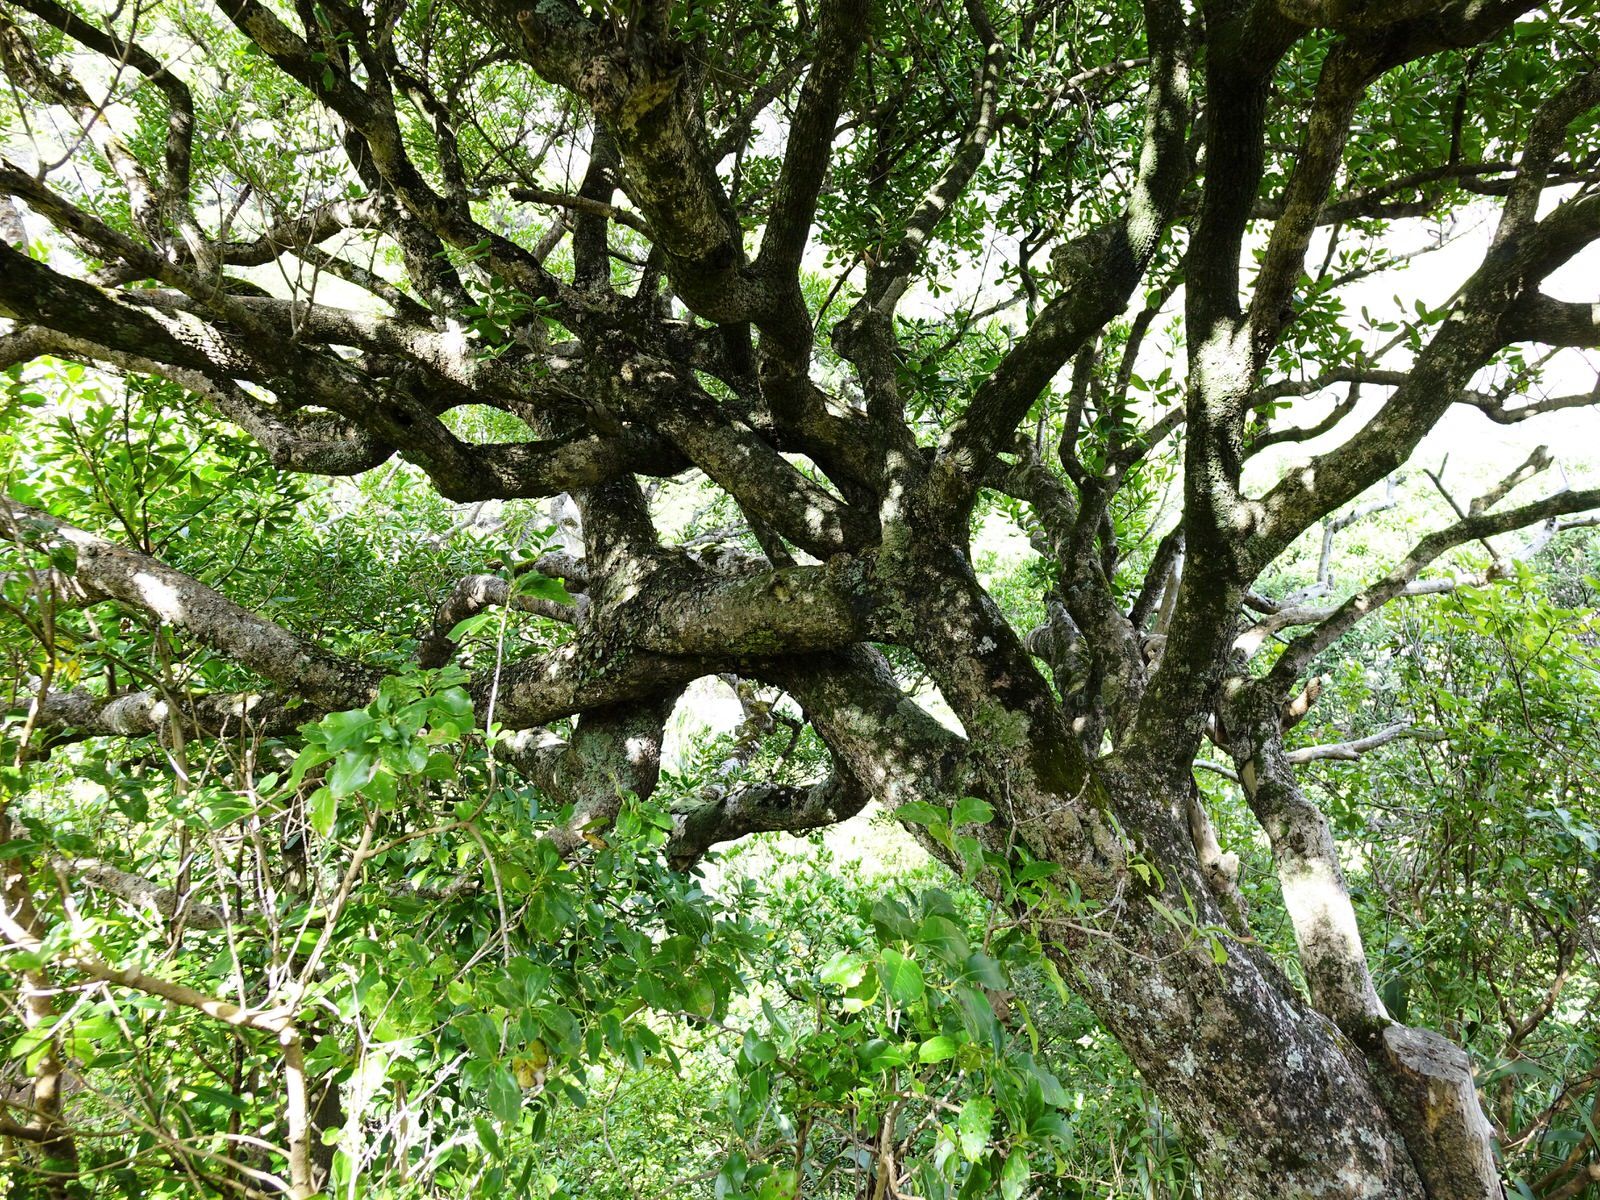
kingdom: Plantae
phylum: Tracheophyta
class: Magnoliopsida
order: Ericales
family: Sapotaceae
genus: Planchonella
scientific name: Planchonella costata
